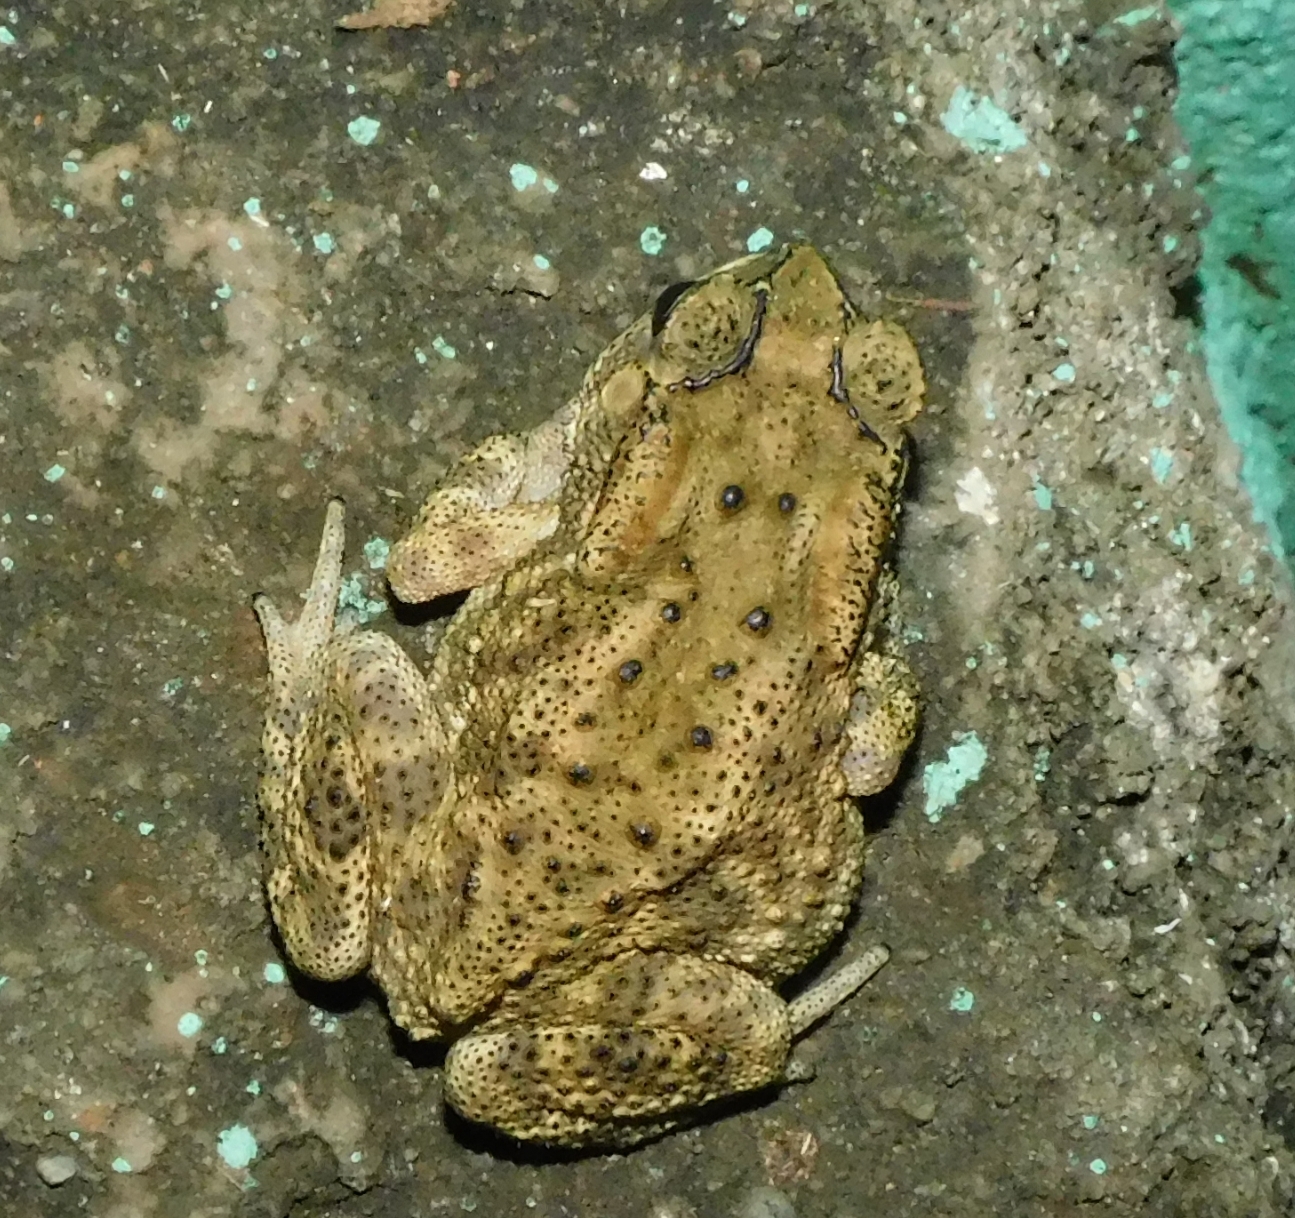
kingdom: Animalia
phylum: Chordata
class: Amphibia
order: Anura
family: Bufonidae
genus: Duttaphrynus
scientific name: Duttaphrynus melanostictus
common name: Common sunda toad
